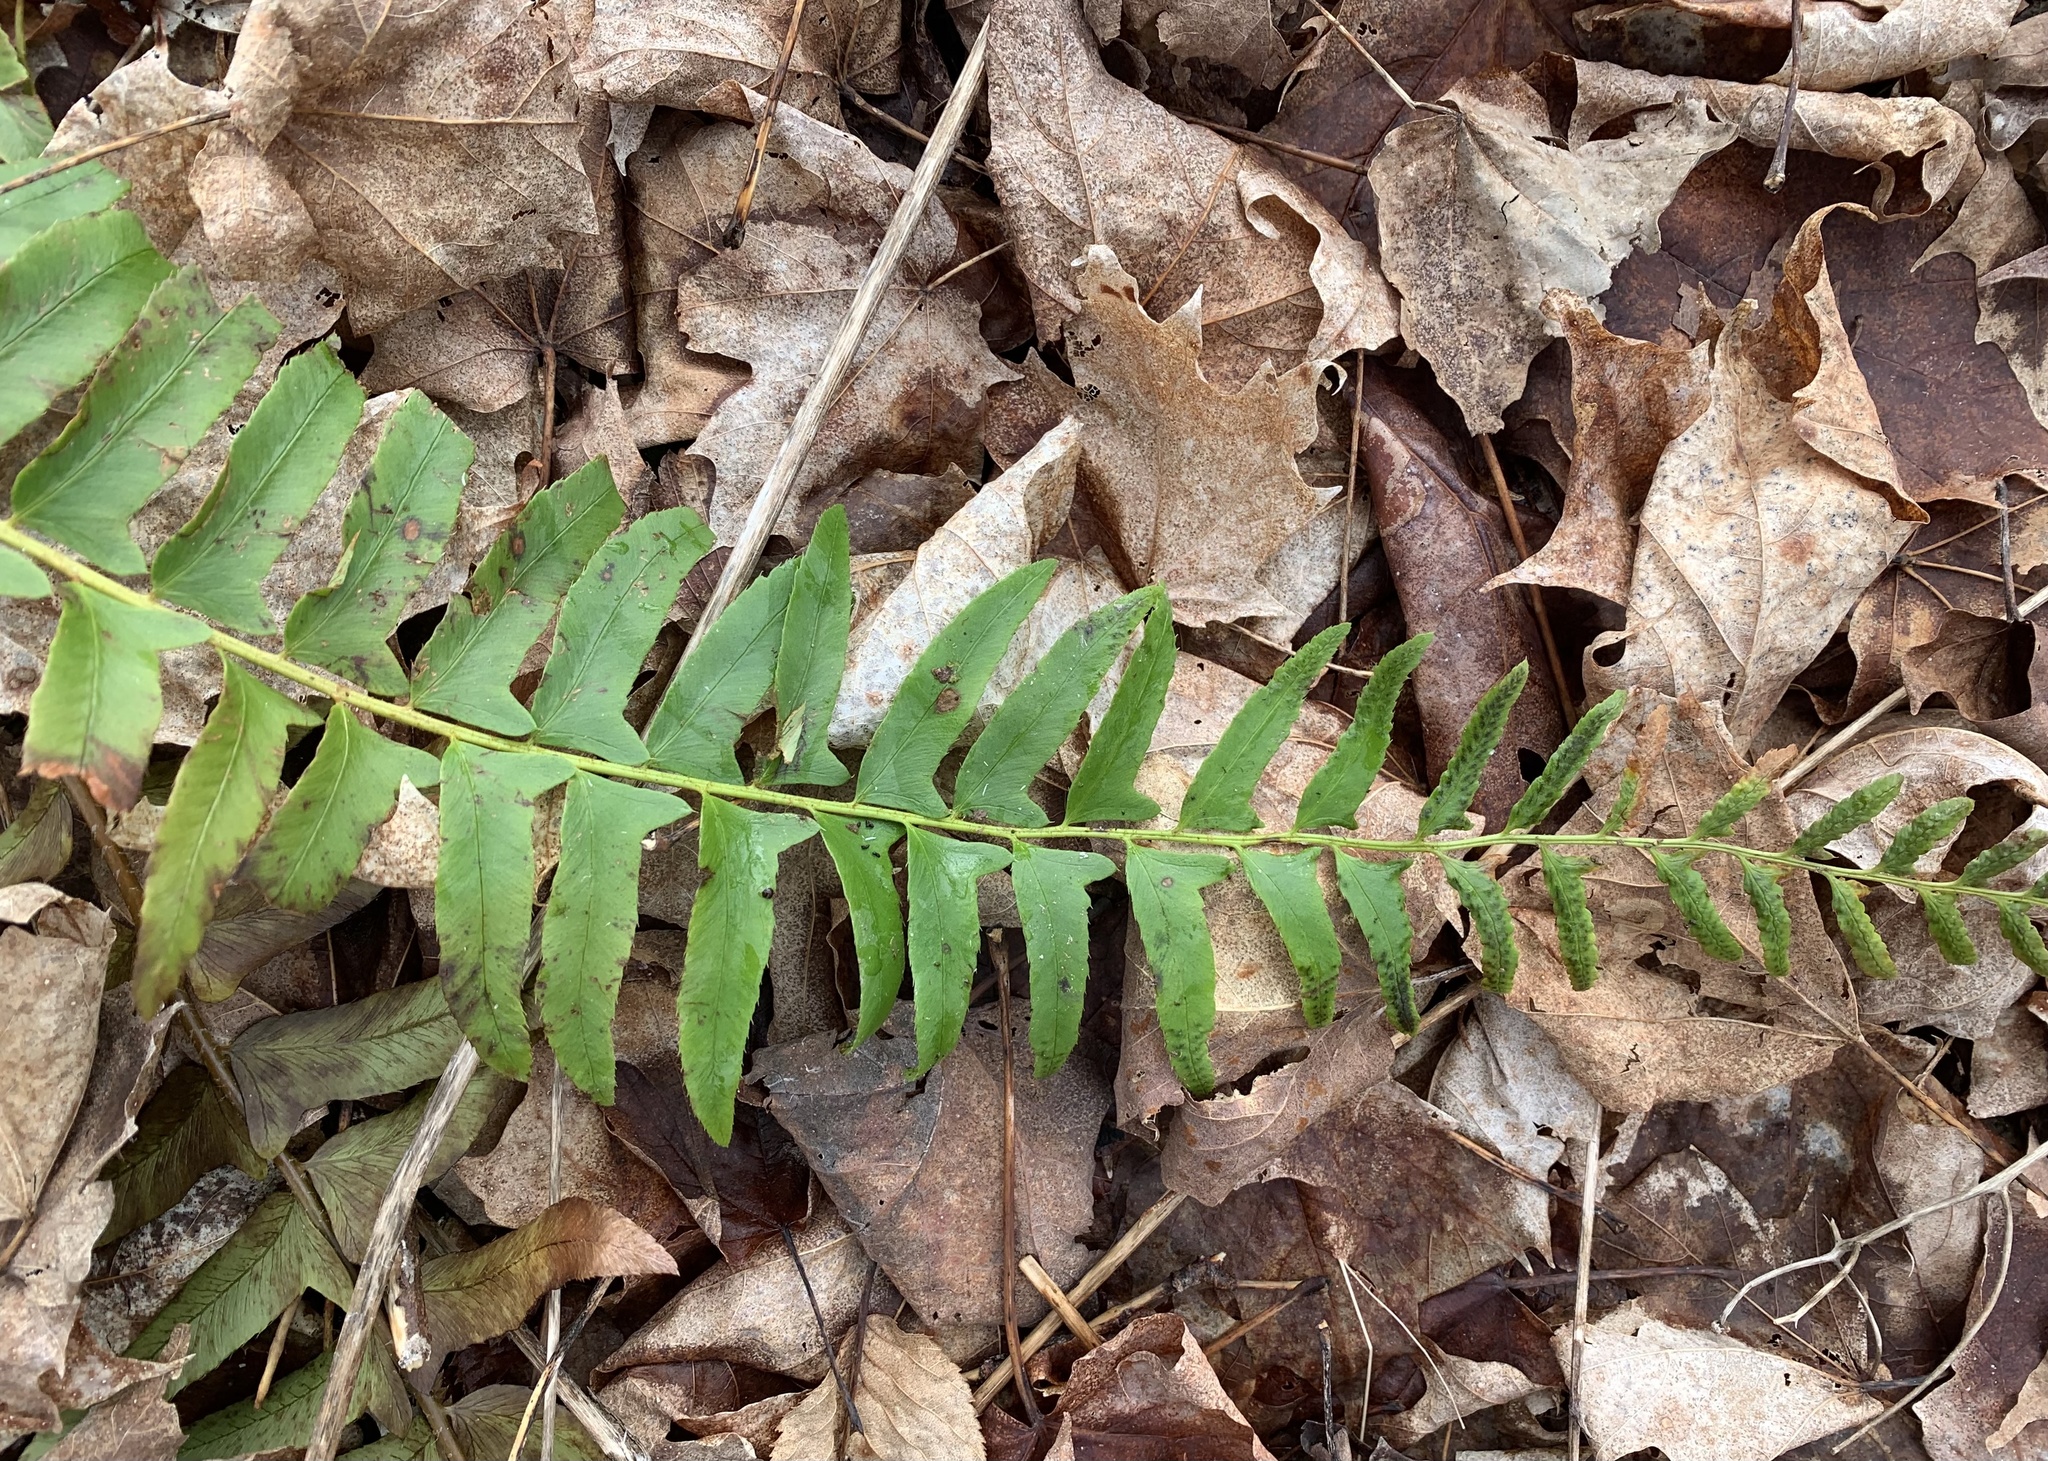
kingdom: Plantae
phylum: Tracheophyta
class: Polypodiopsida
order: Polypodiales
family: Dryopteridaceae
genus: Polystichum
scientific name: Polystichum acrostichoides
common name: Christmas fern
